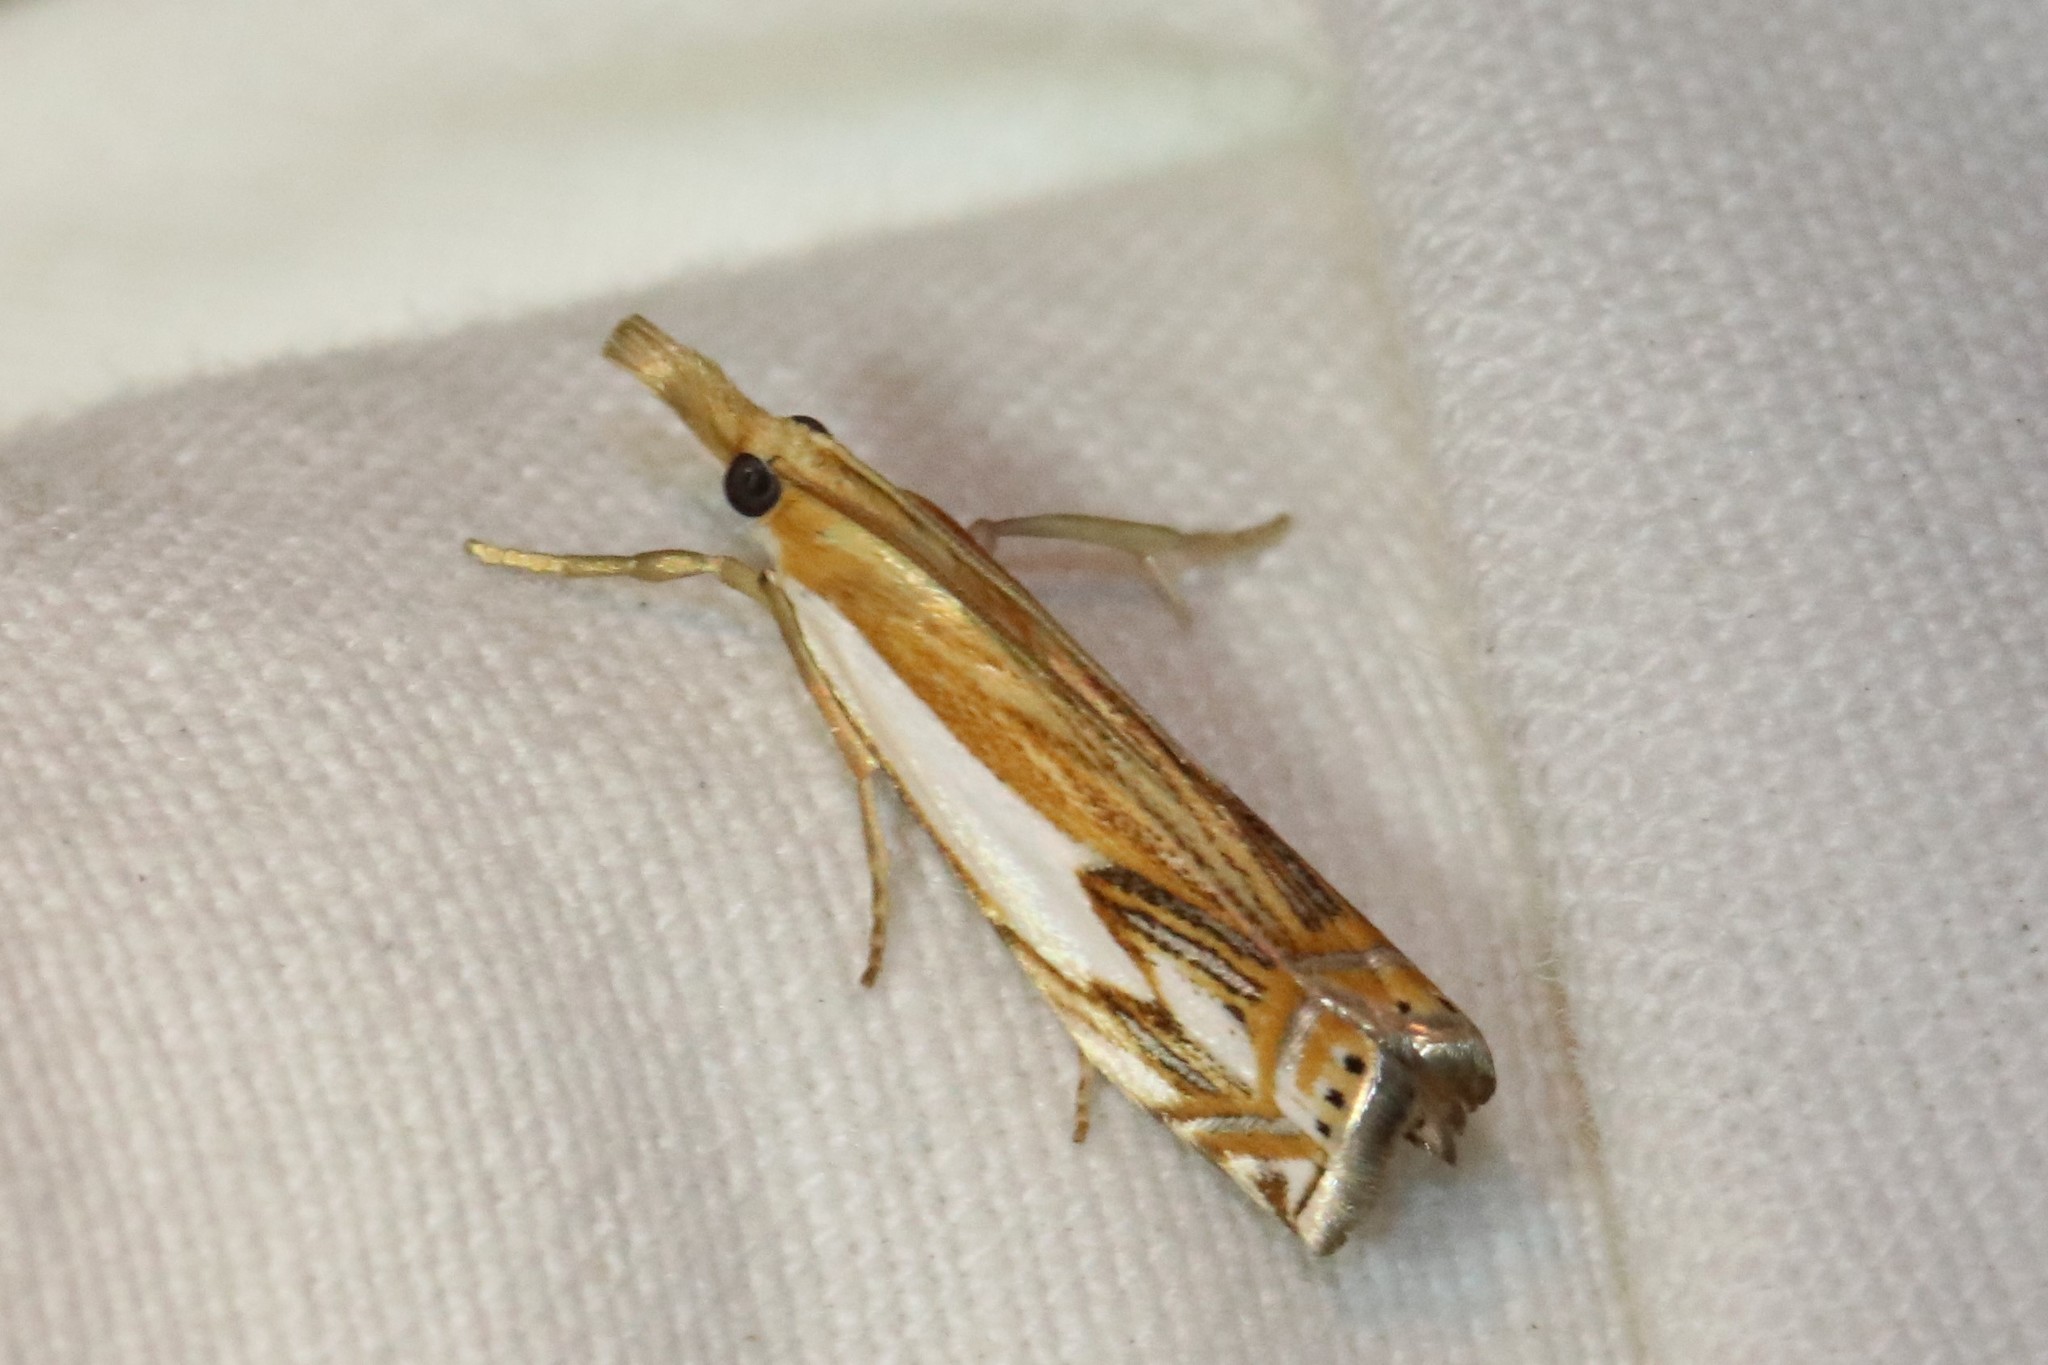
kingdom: Animalia
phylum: Arthropoda
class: Insecta
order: Lepidoptera
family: Crambidae
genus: Crambus
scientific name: Crambus agitatellus
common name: Double-banded grass-veneer
